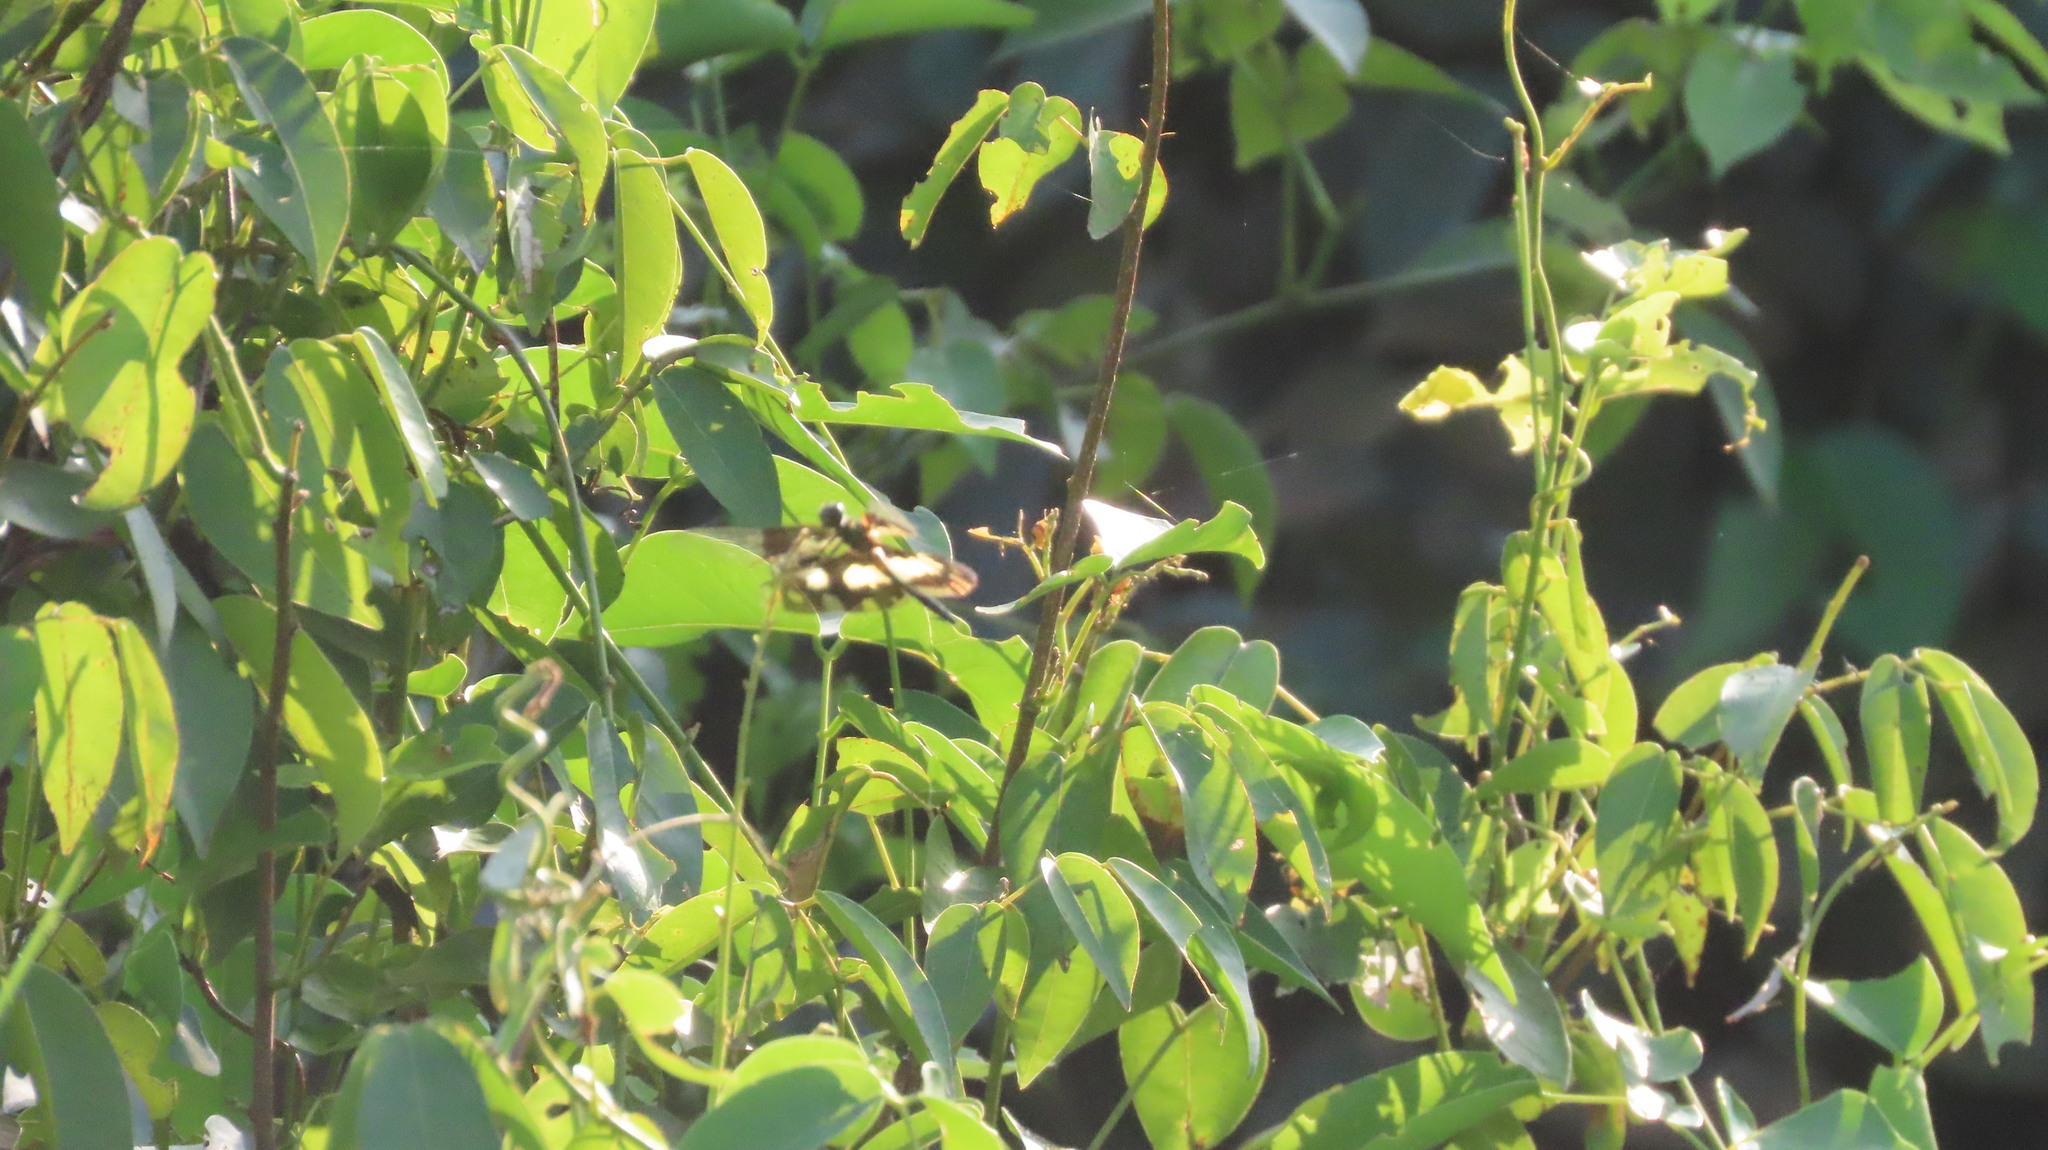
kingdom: Animalia
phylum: Arthropoda
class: Insecta
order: Odonata
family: Libellulidae
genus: Rhyothemis
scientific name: Rhyothemis variegata
